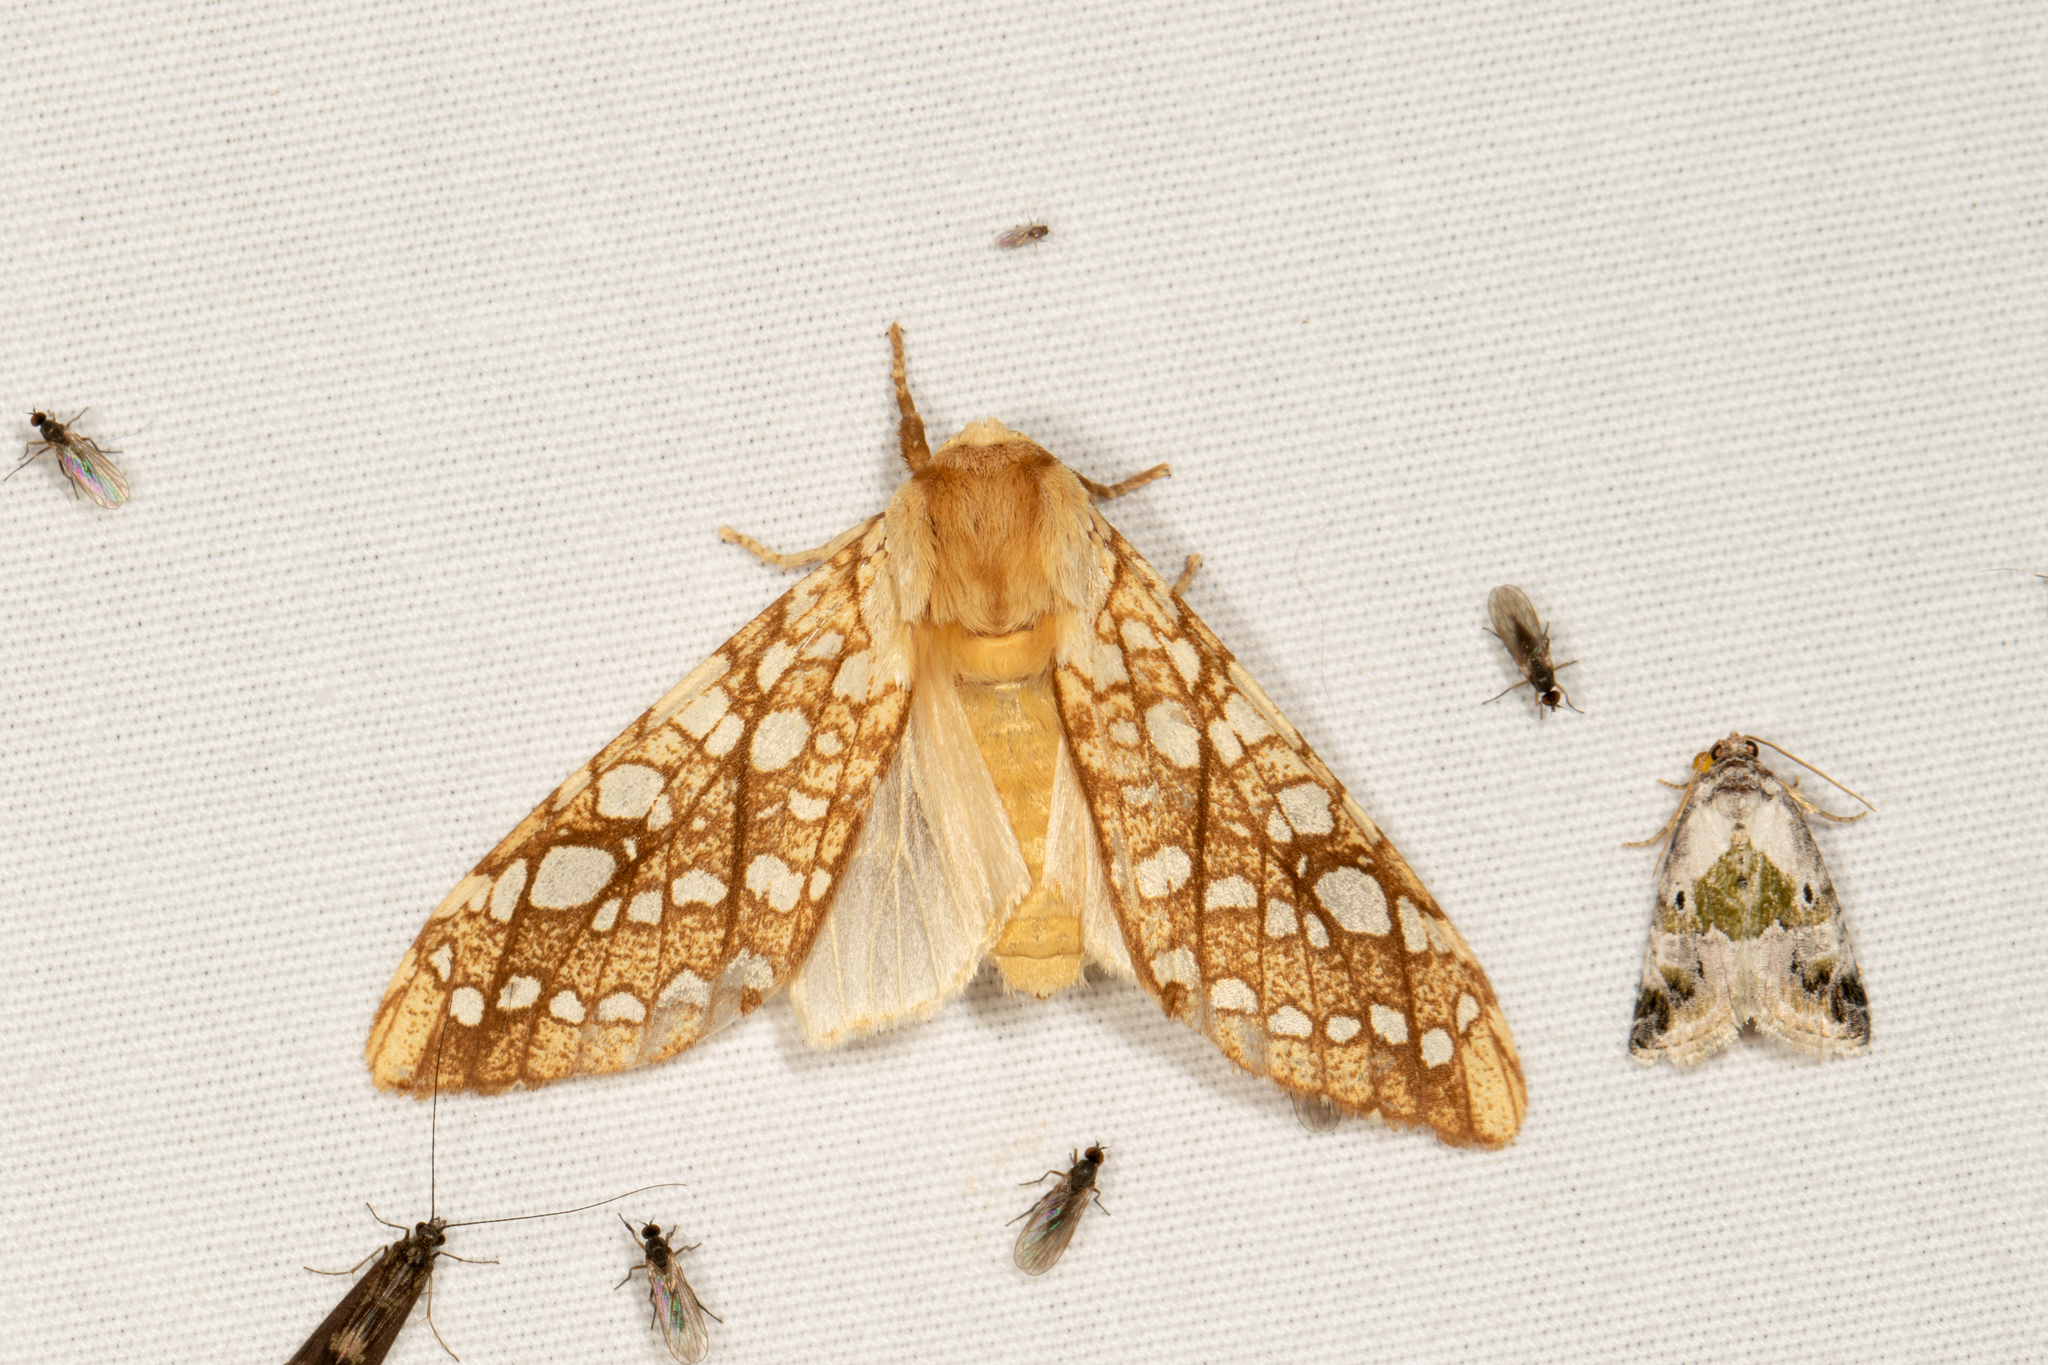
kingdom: Animalia
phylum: Arthropoda
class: Insecta
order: Lepidoptera
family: Erebidae
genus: Lophocampa
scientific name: Lophocampa caryae
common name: Hickory tussock moth
